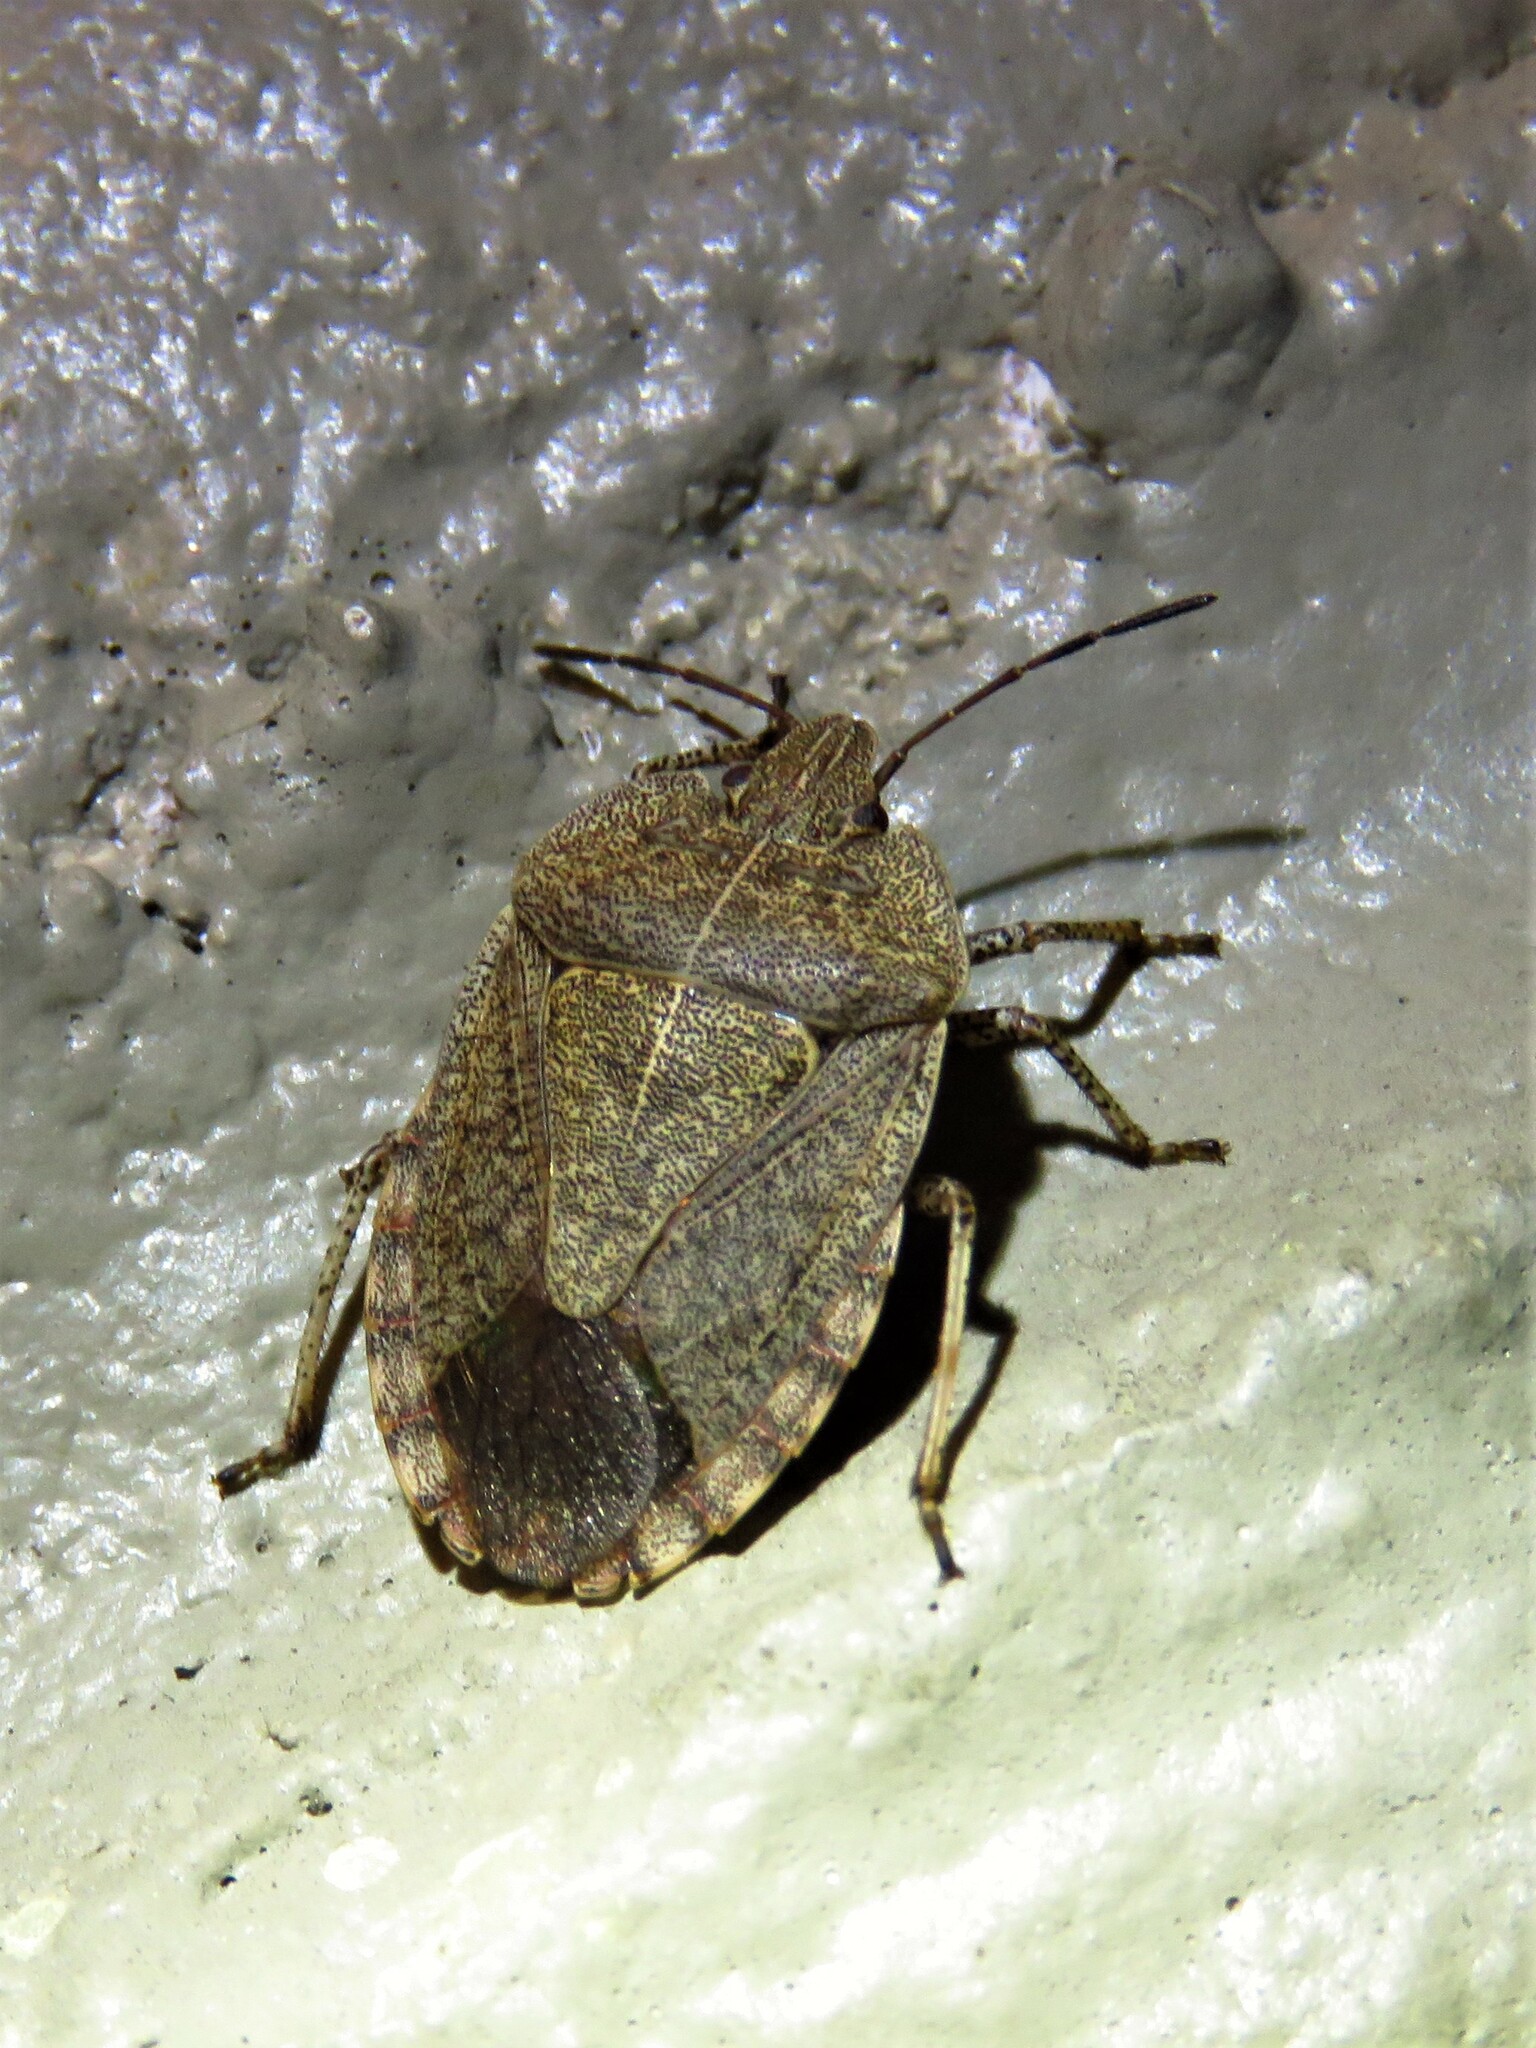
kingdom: Animalia
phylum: Arthropoda
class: Insecta
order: Hemiptera
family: Pentatomidae
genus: Menecles
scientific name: Menecles insertus
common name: Elf shoe stink bug
